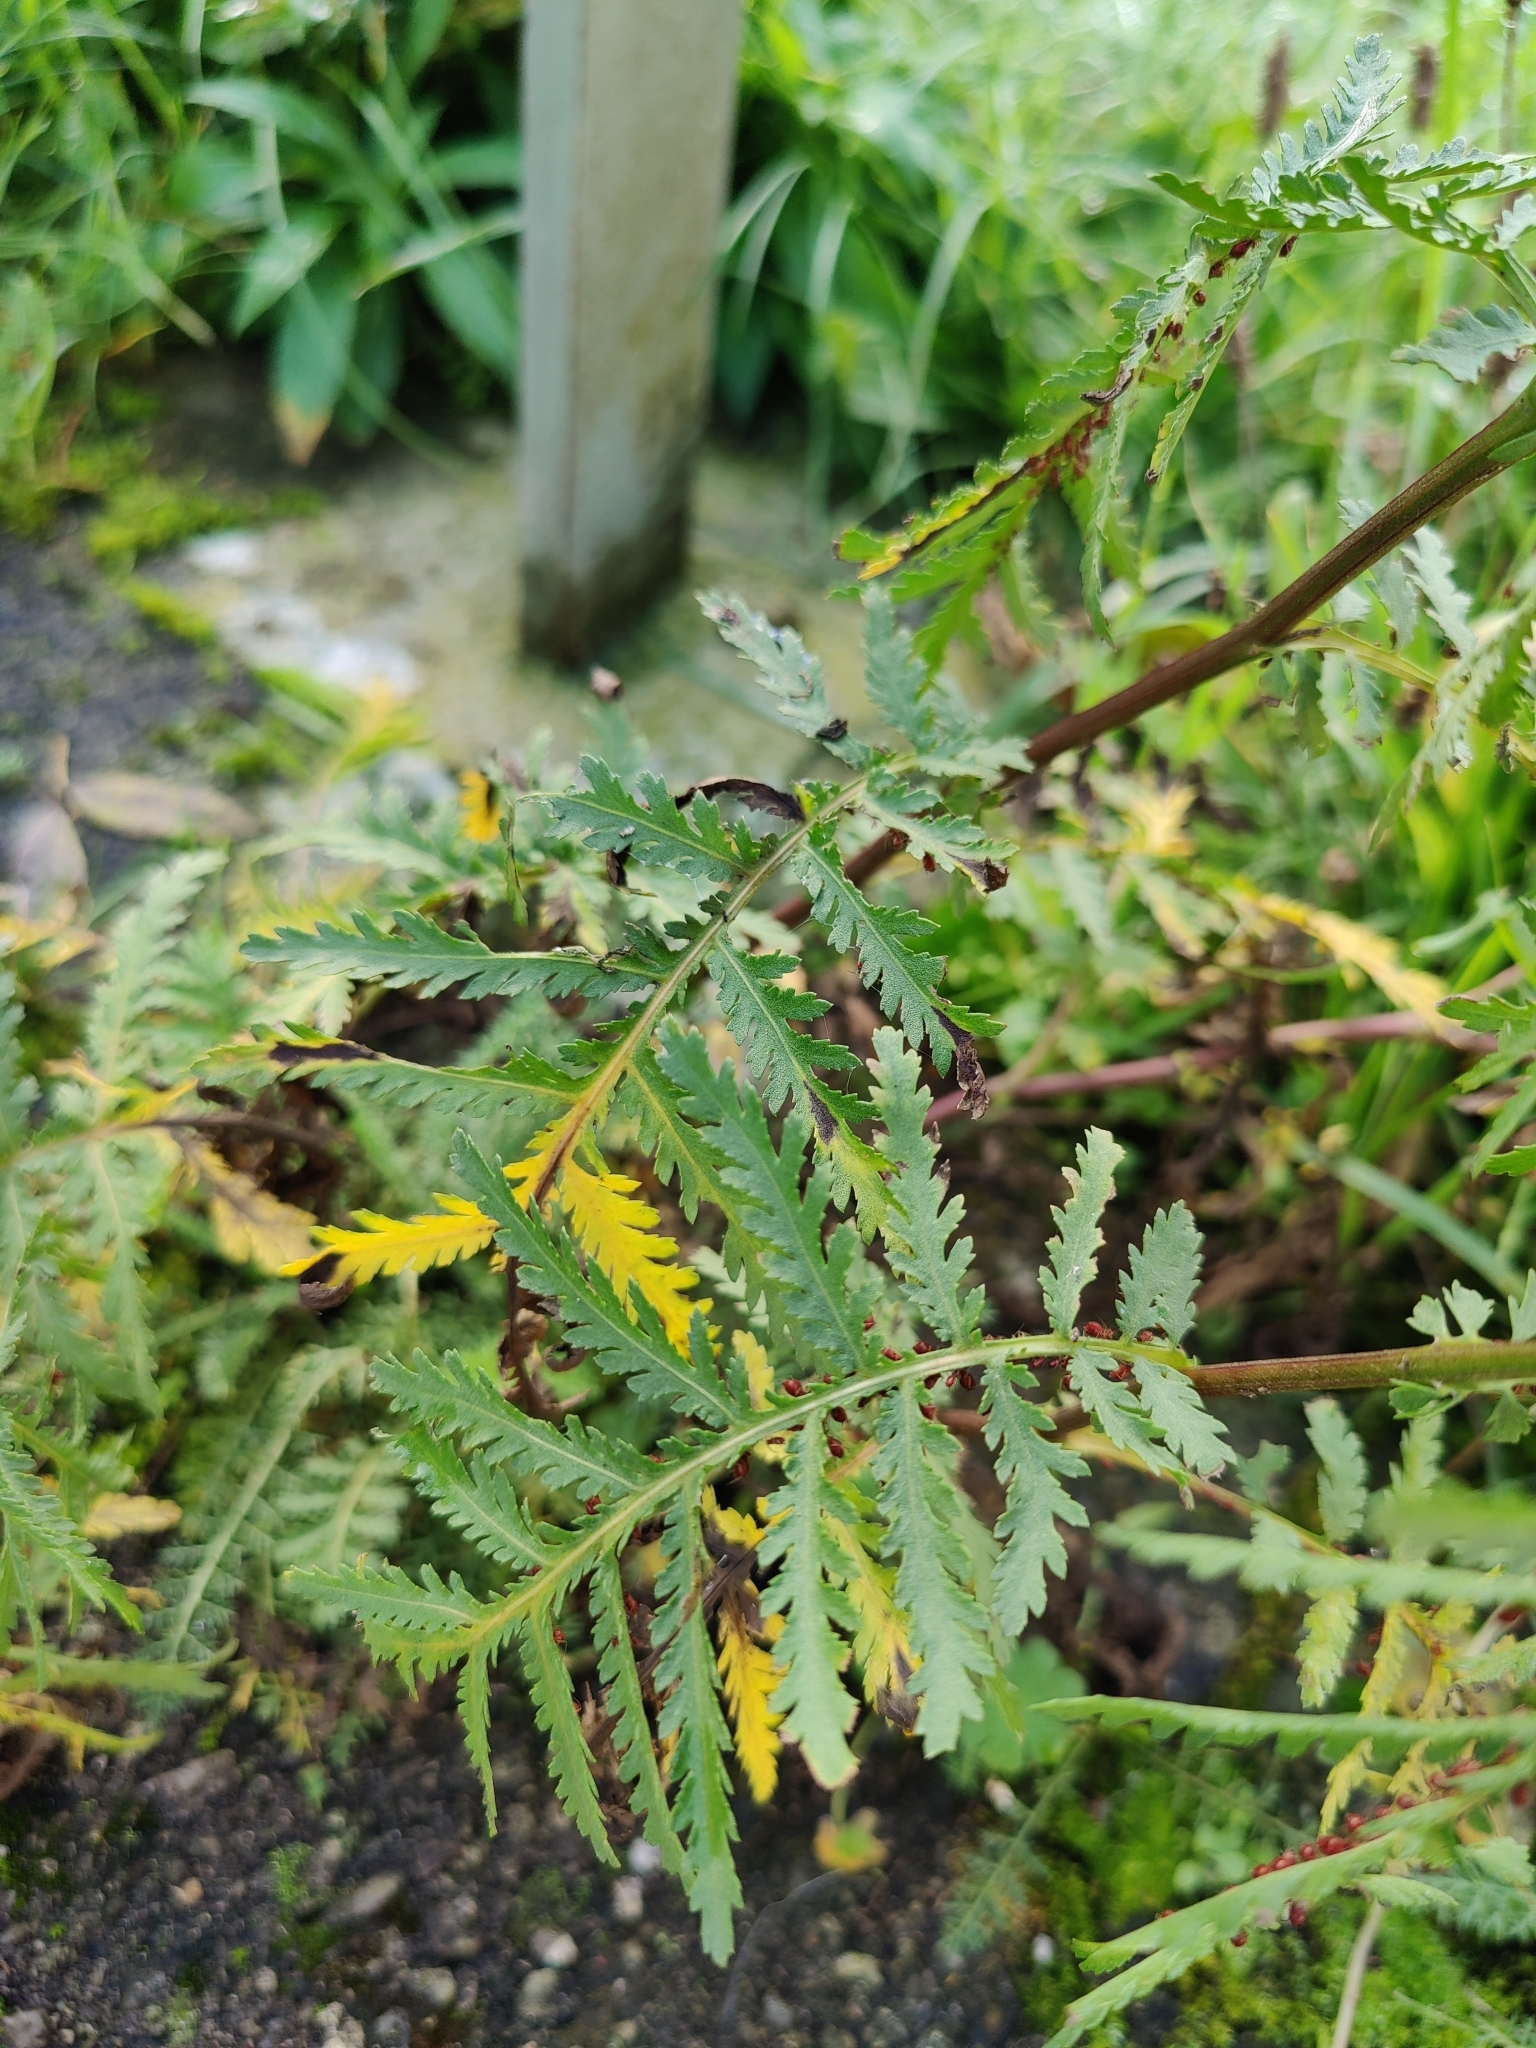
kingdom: Plantae
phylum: Tracheophyta
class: Magnoliopsida
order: Asterales
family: Asteraceae
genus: Tanacetum
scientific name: Tanacetum vulgare
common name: Common tansy
